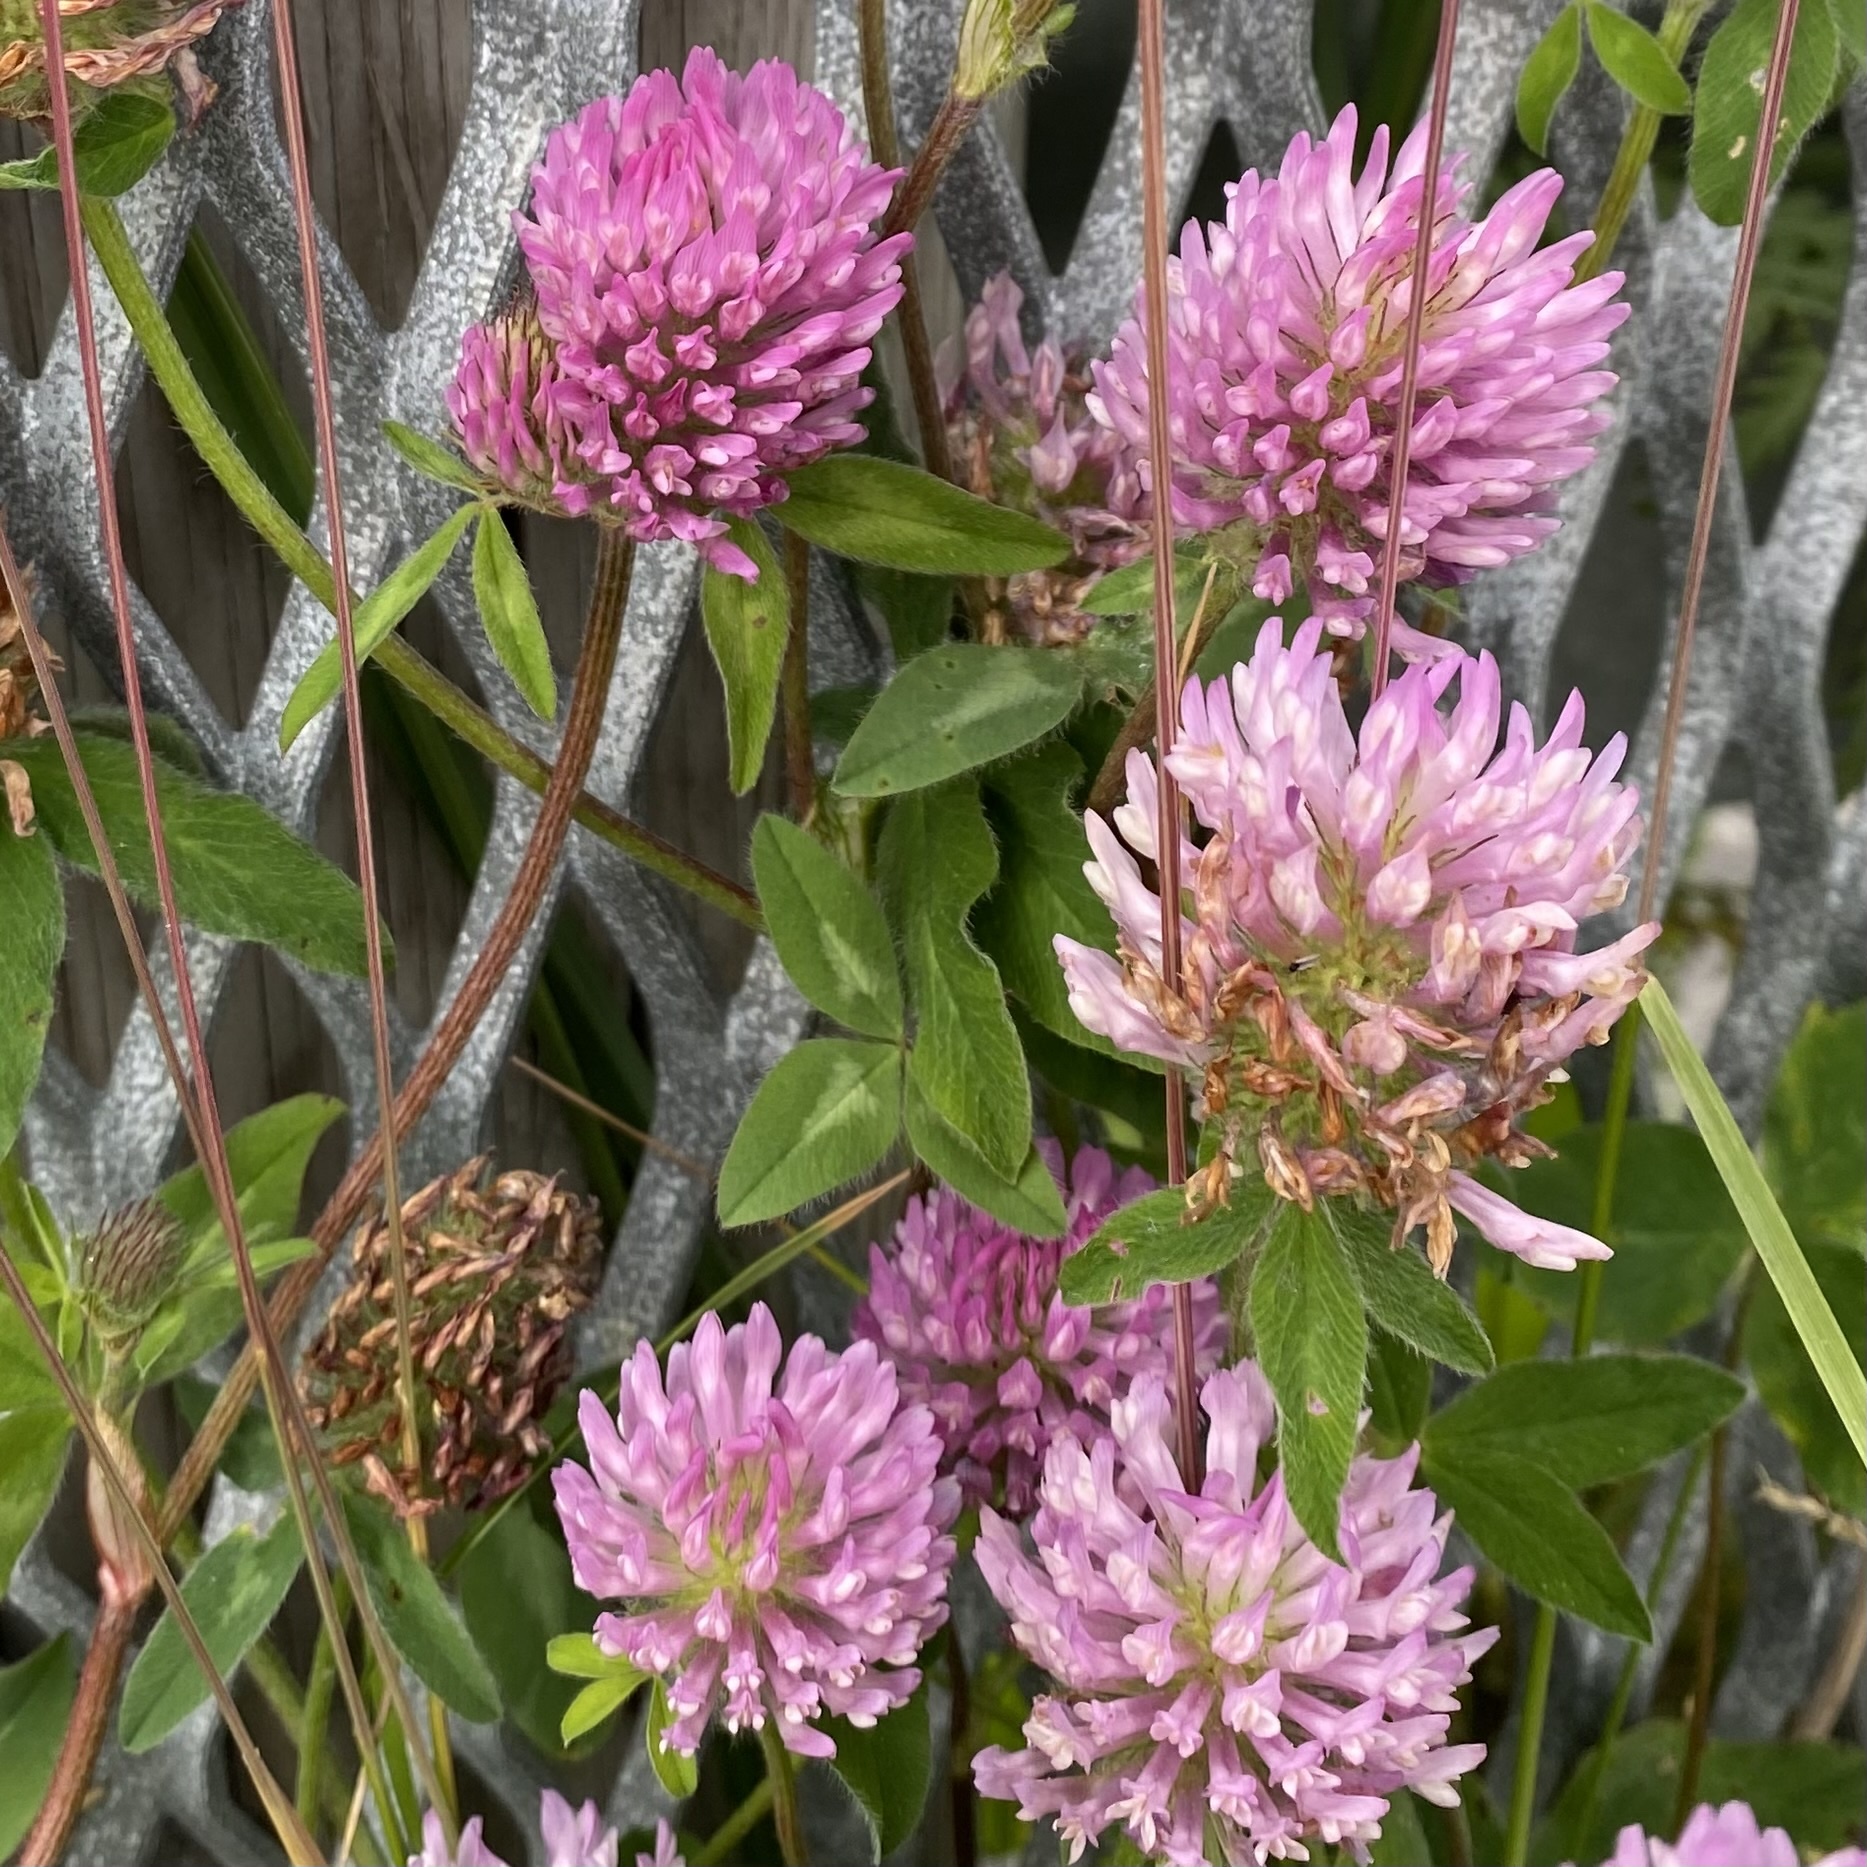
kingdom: Plantae
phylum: Tracheophyta
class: Magnoliopsida
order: Fabales
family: Fabaceae
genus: Trifolium
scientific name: Trifolium pratense
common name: Red clover
